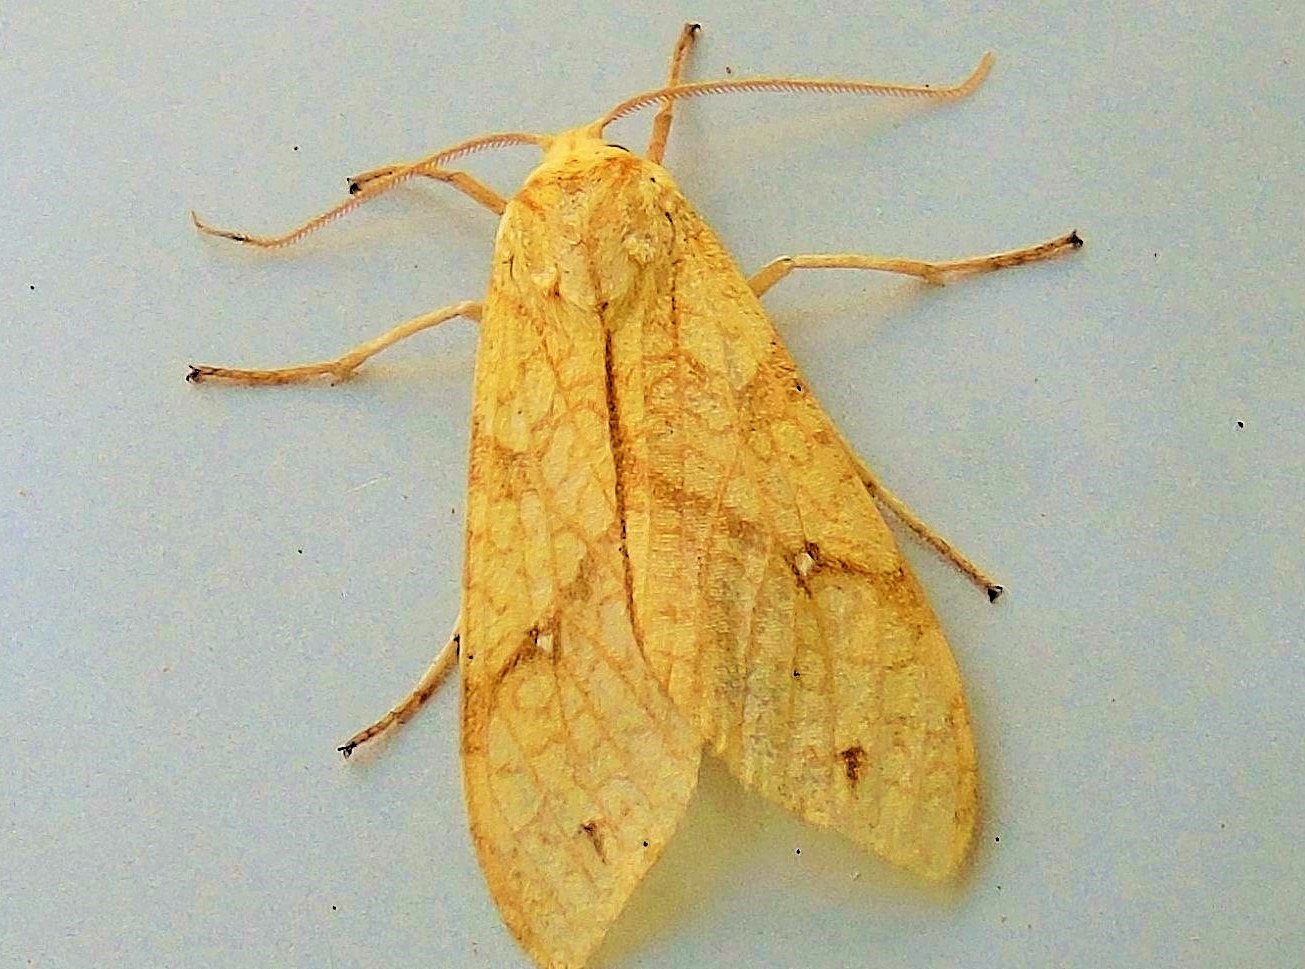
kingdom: Animalia
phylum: Arthropoda
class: Insecta
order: Lepidoptera
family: Erebidae
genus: Lophocampa
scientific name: Lophocampa annulosa
